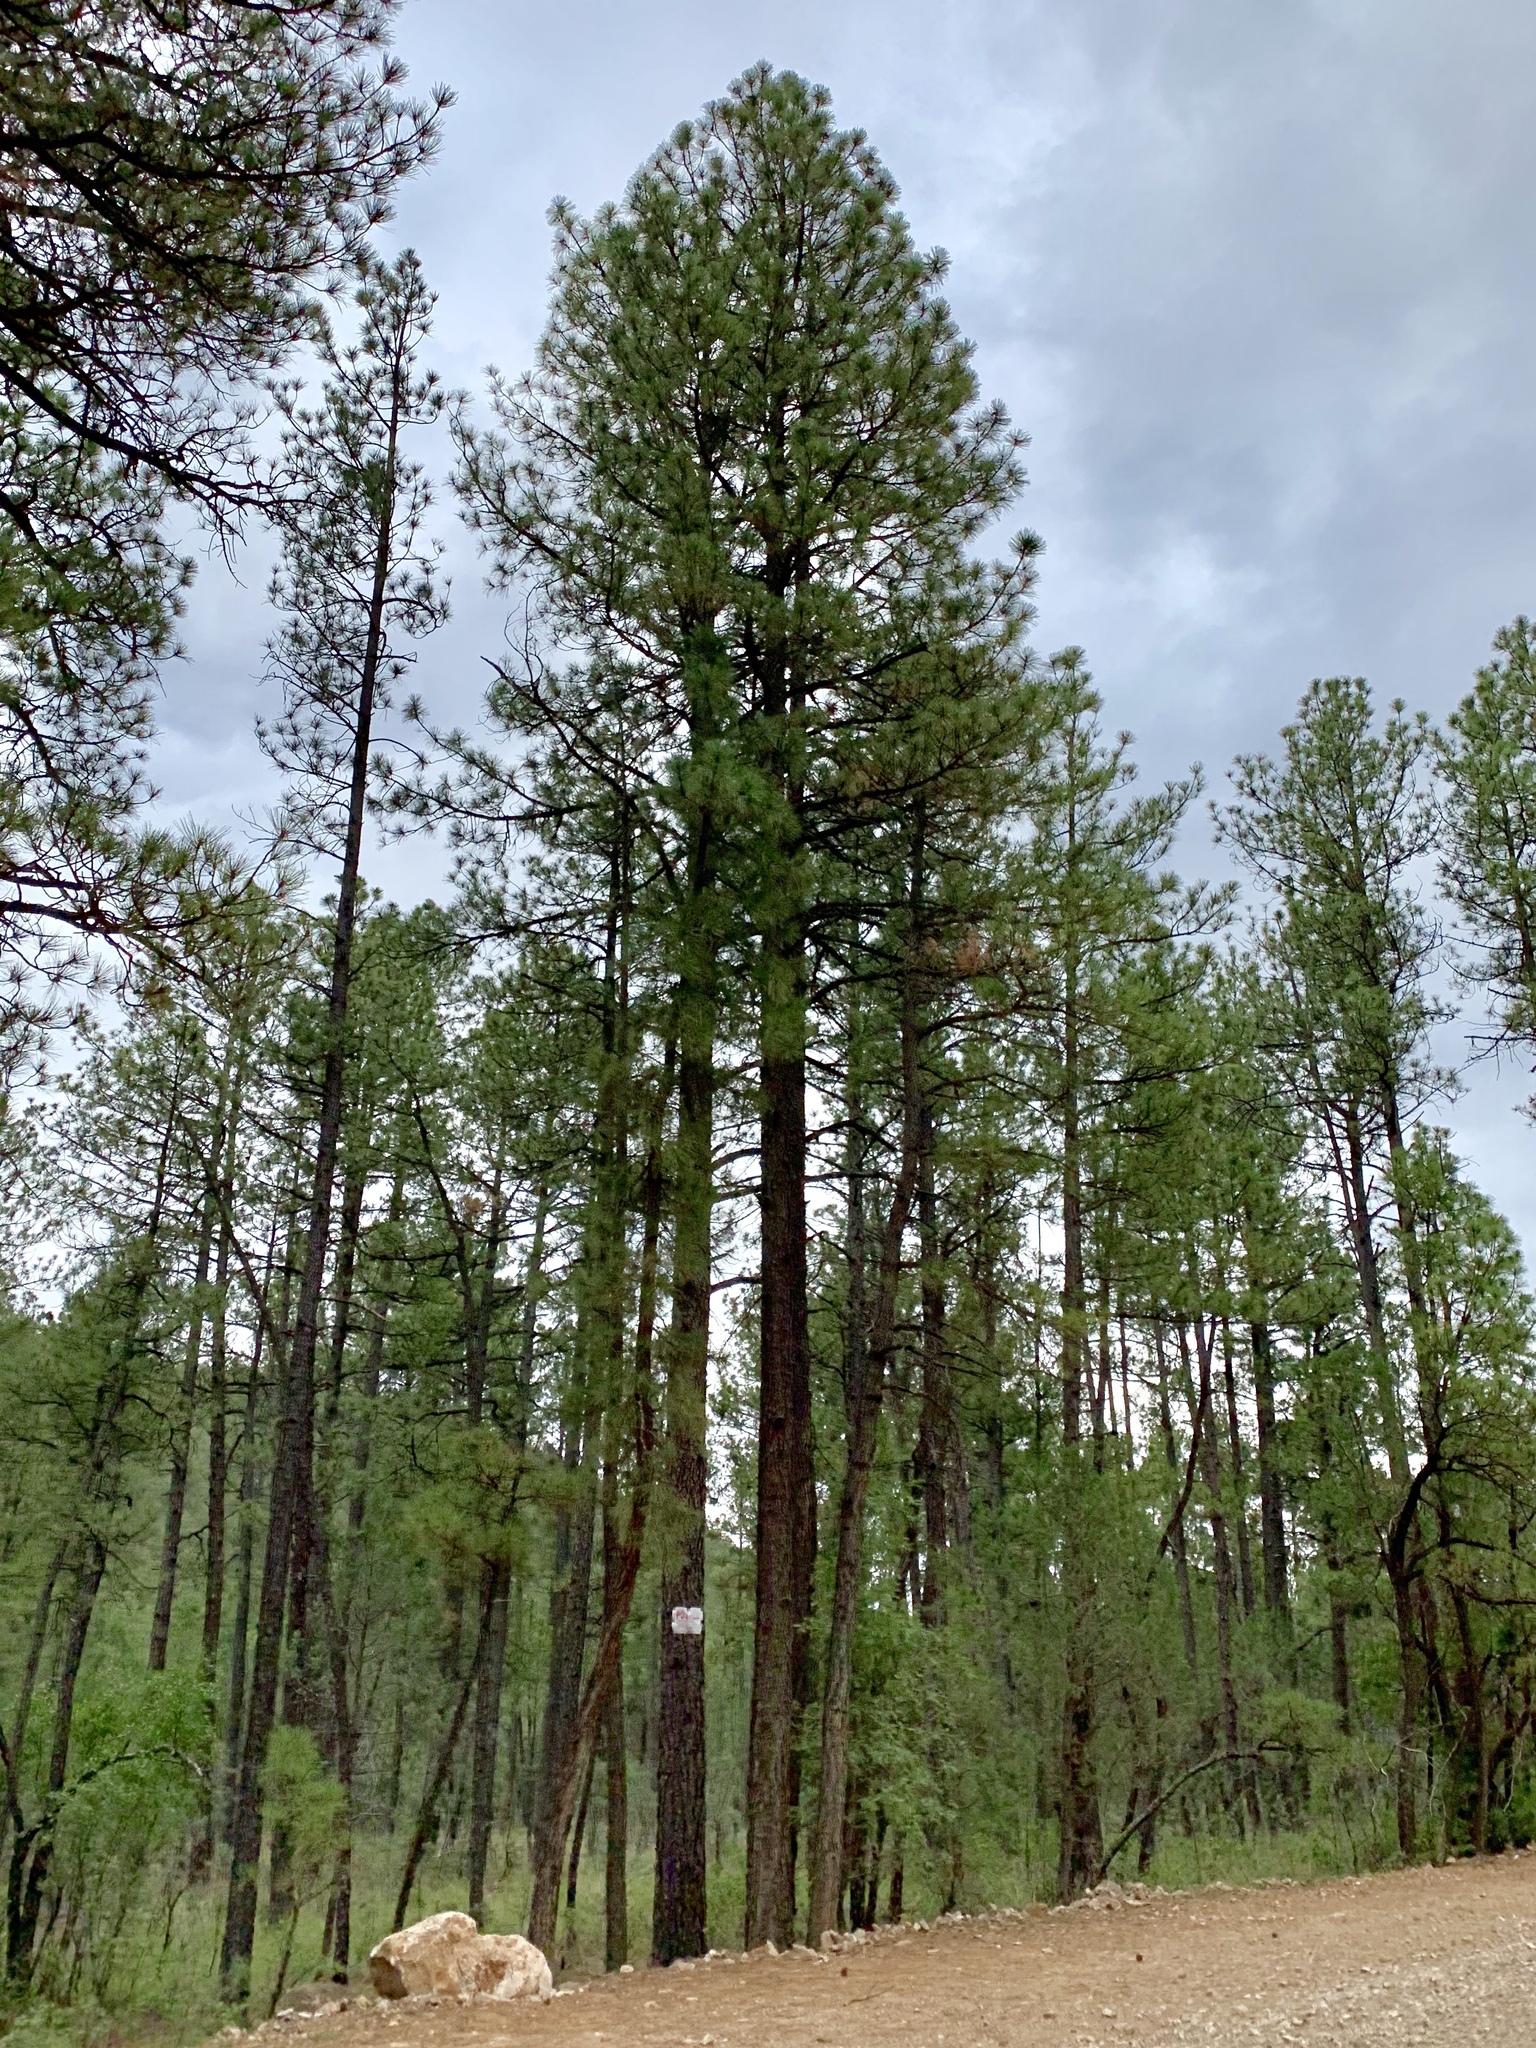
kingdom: Plantae
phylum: Tracheophyta
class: Pinopsida
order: Pinales
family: Pinaceae
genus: Pinus
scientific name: Pinus ponderosa
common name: Western yellow-pine
